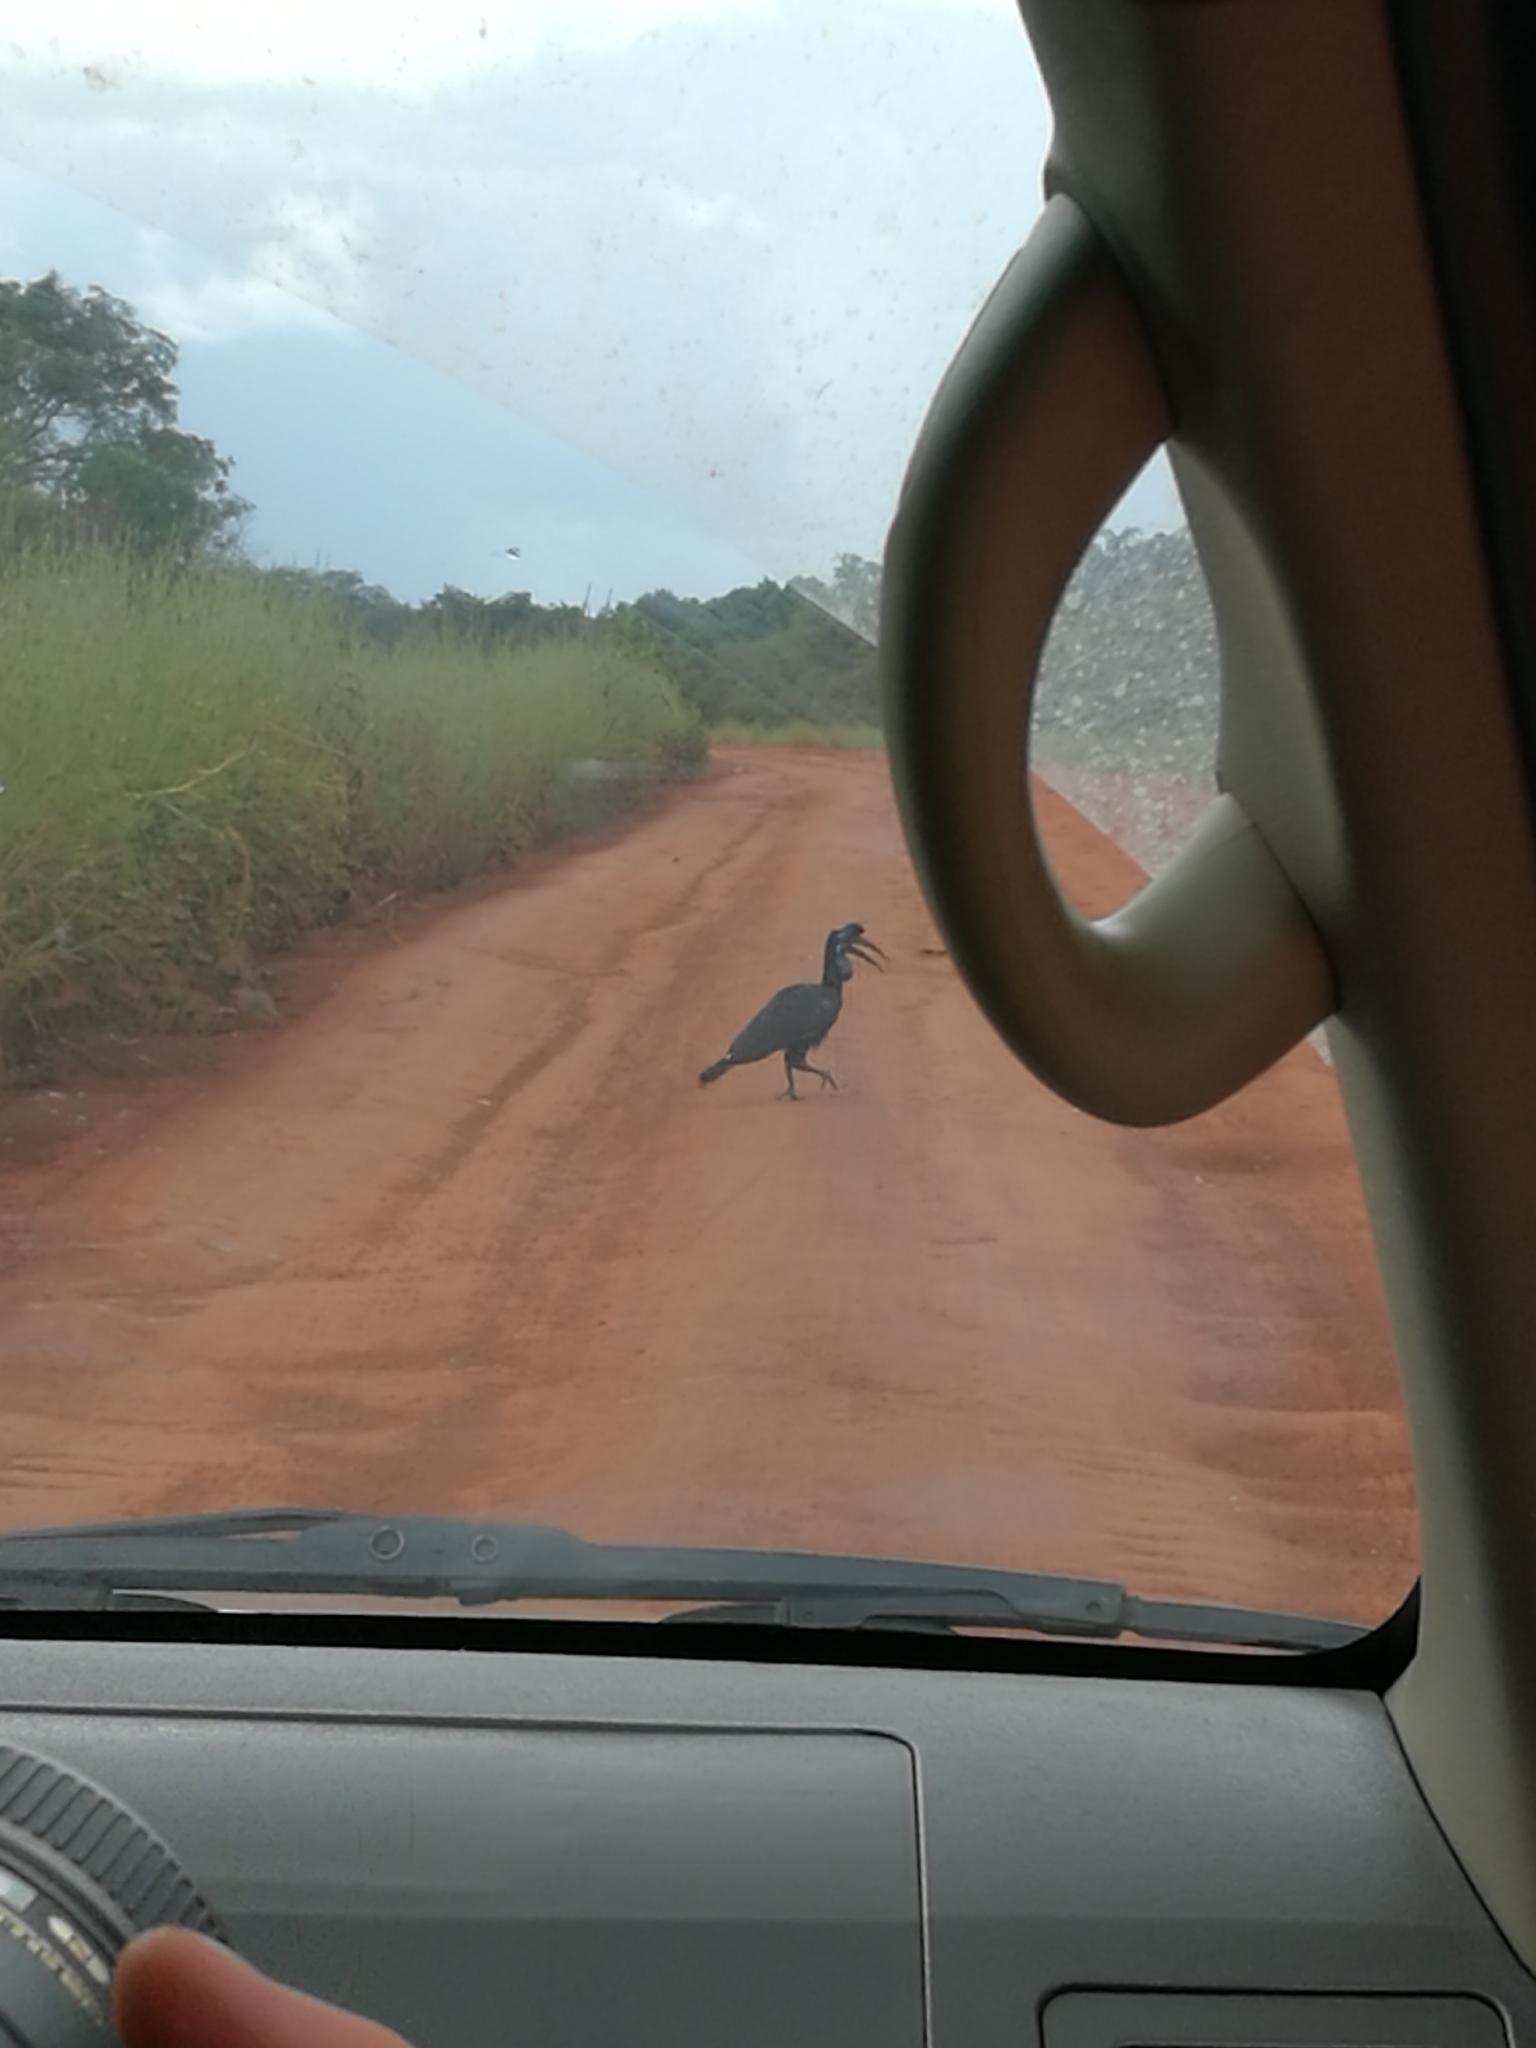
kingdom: Animalia
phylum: Chordata
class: Aves
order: Bucerotiformes
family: Bucorvidae
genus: Bucorvus
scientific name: Bucorvus abyssinicus
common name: Abyssinian ground hornbill
